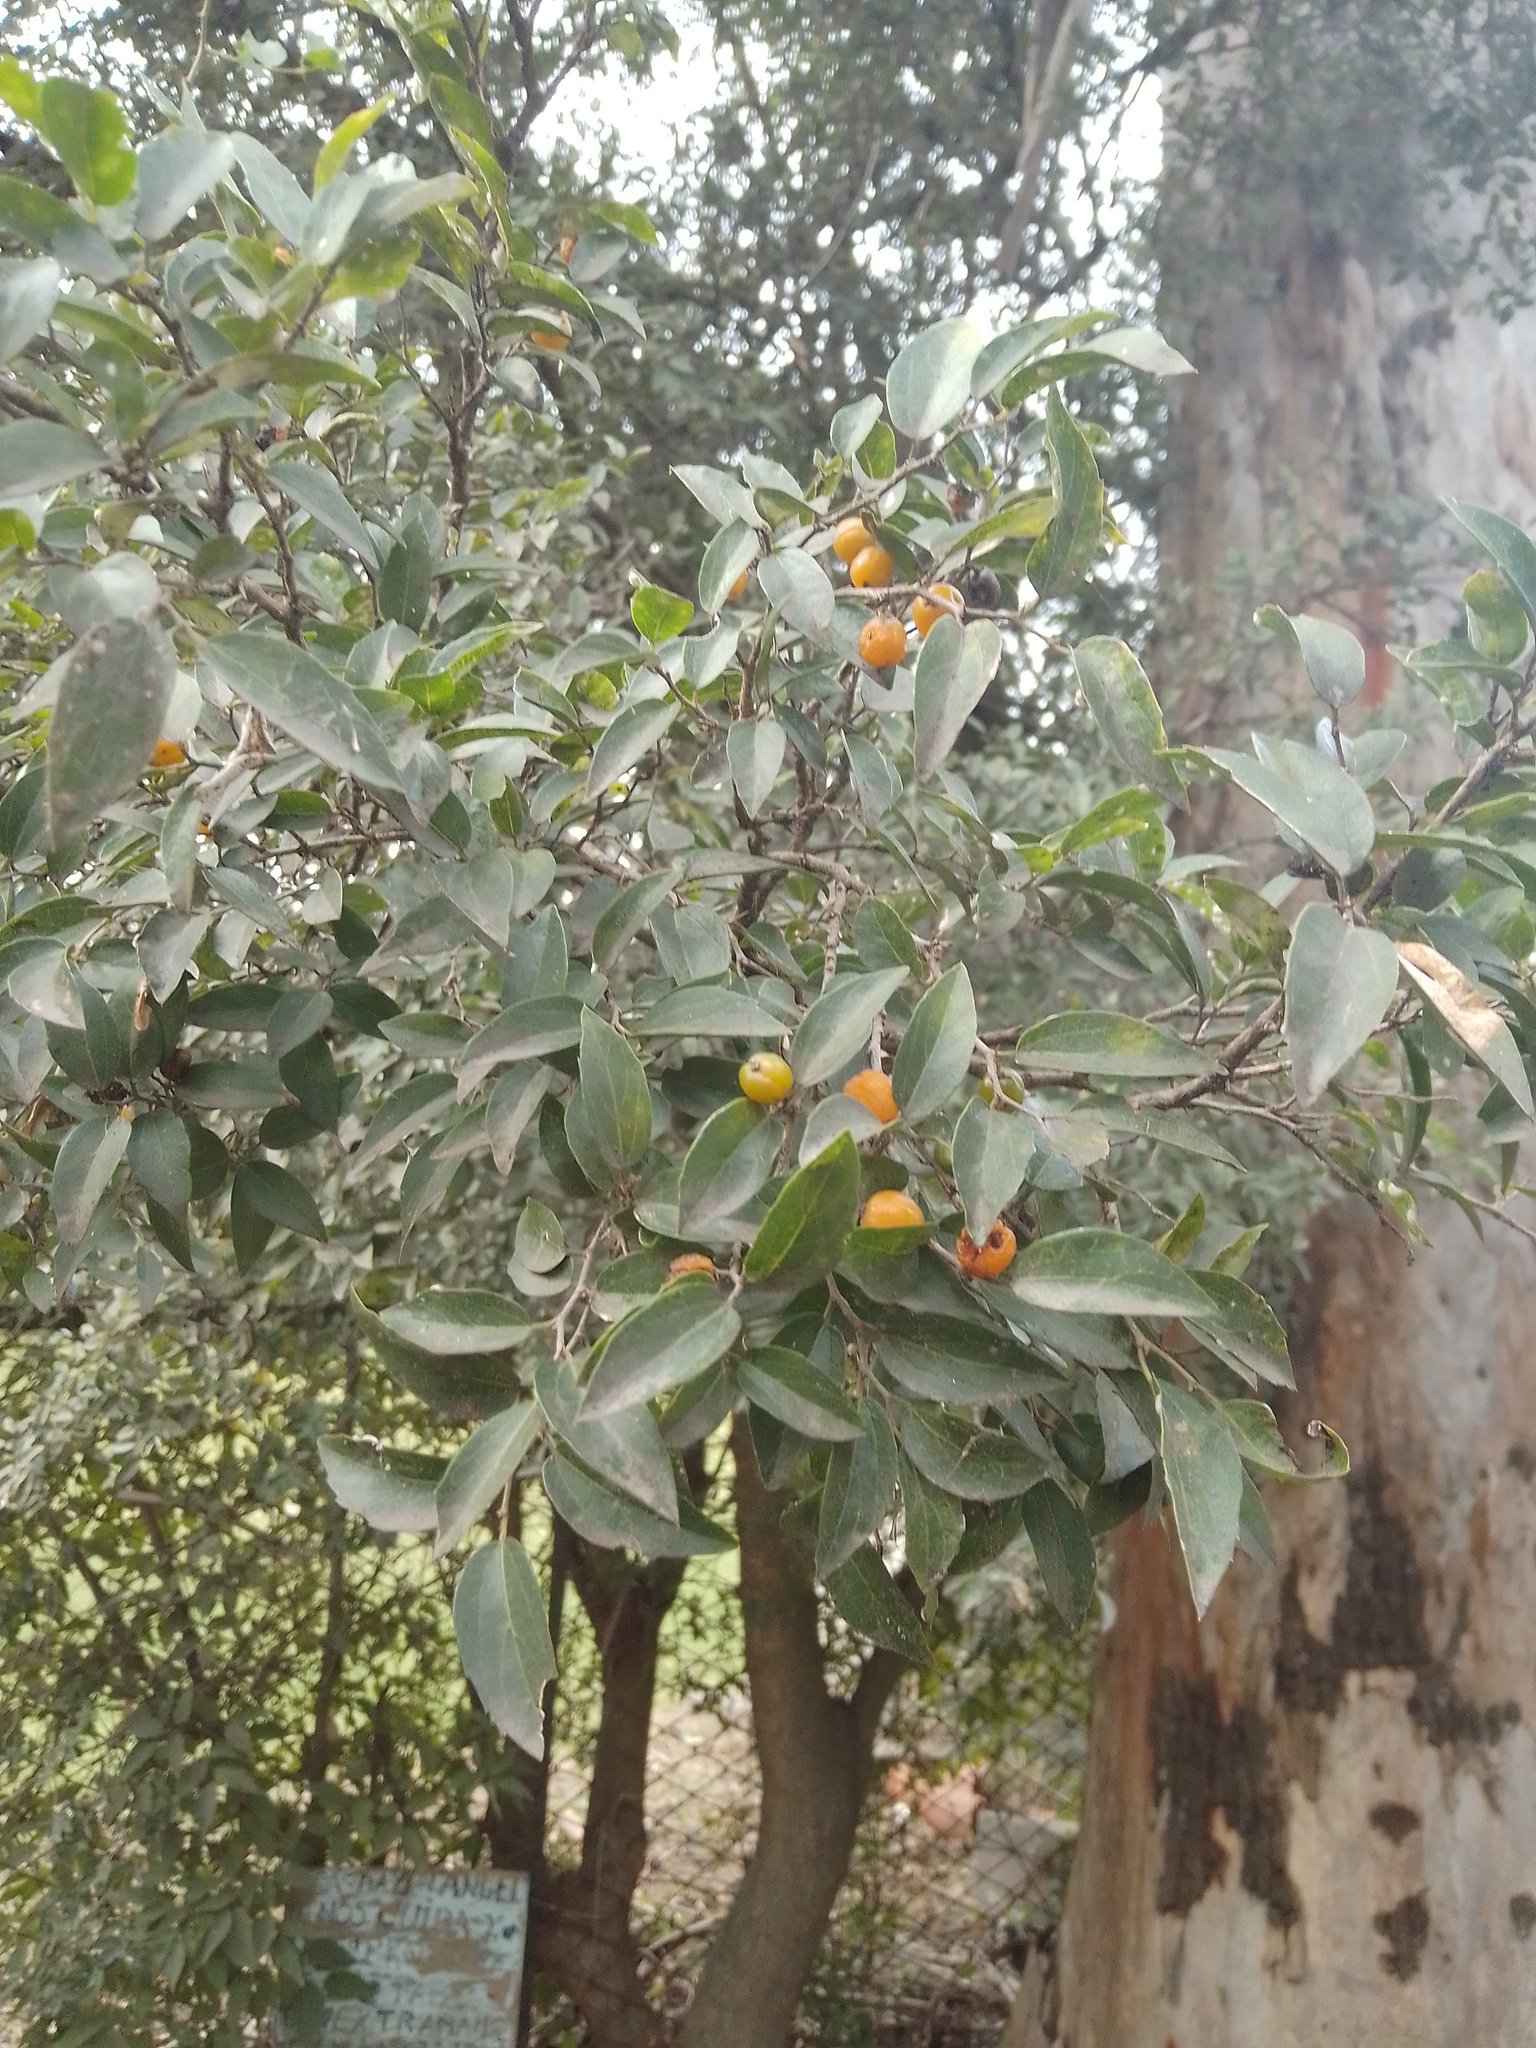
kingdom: Plantae
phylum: Tracheophyta
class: Magnoliopsida
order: Rosales
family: Cannabaceae
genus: Celtis
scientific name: Celtis tala
